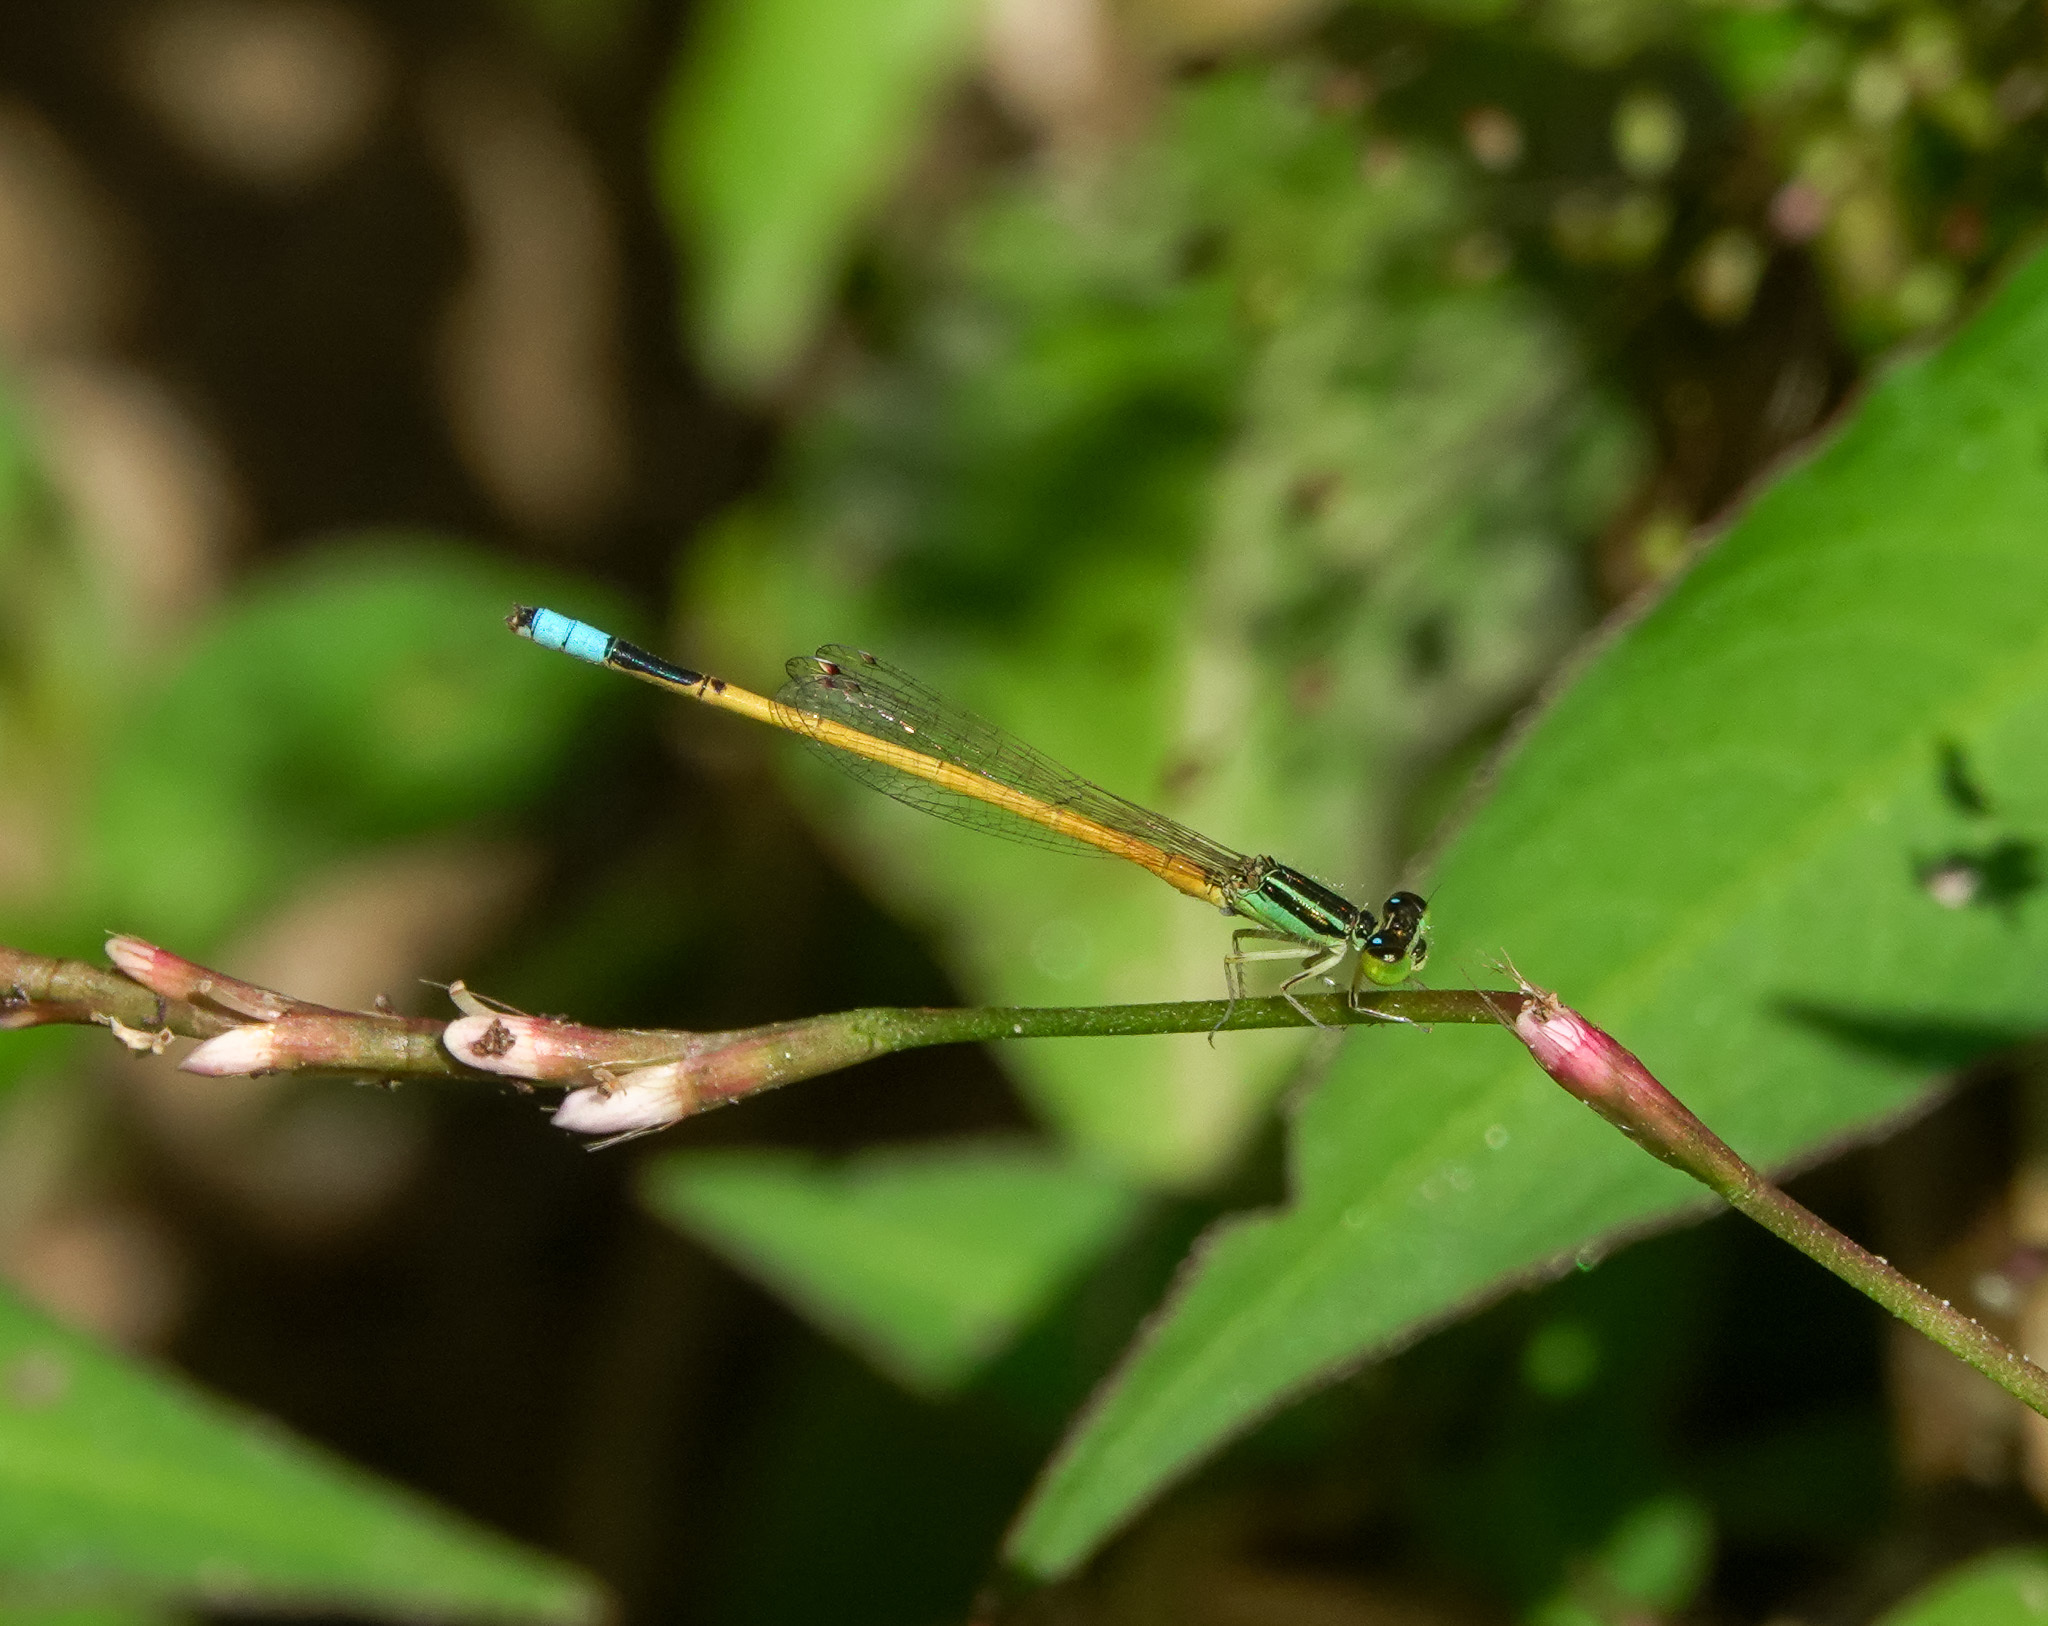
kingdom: Animalia
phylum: Arthropoda
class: Insecta
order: Odonata
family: Coenagrionidae
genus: Ischnura
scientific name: Ischnura rubilio
